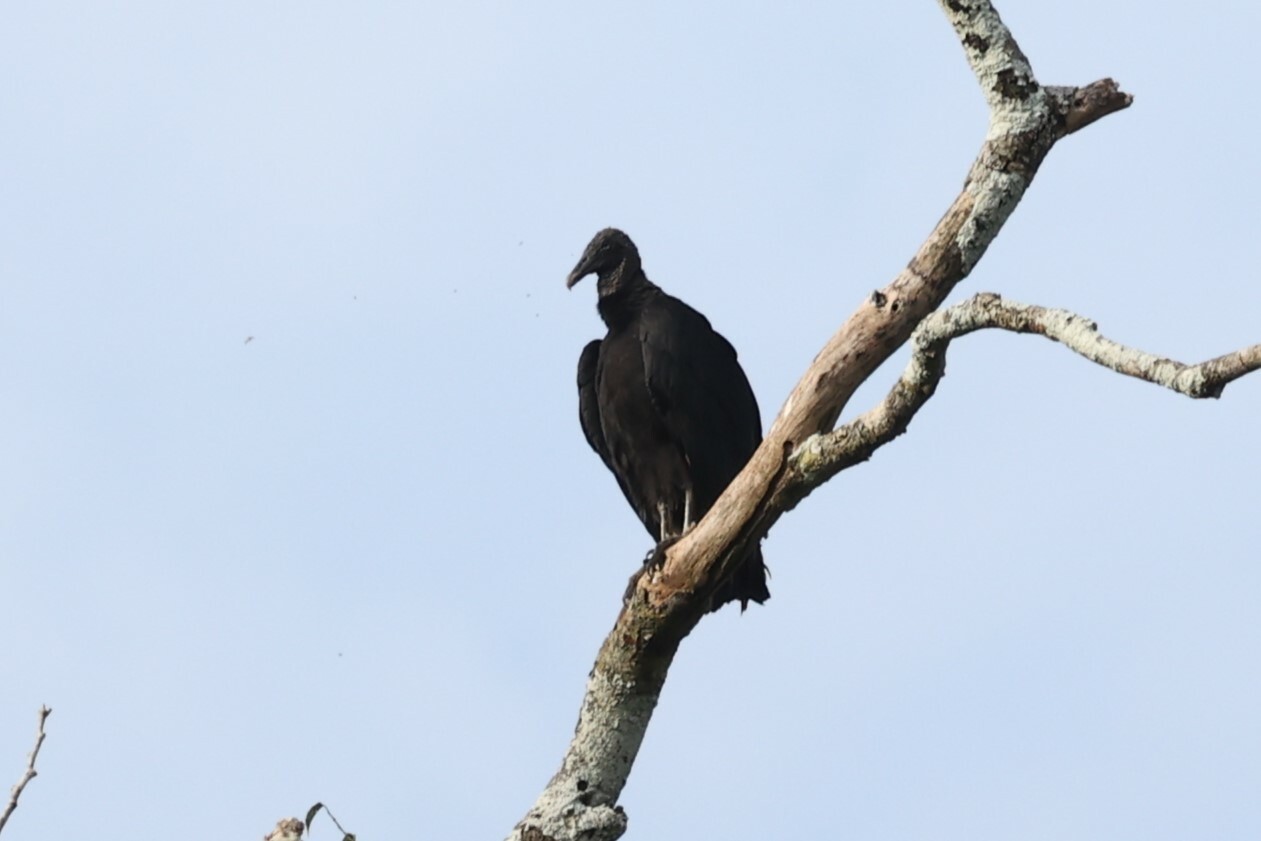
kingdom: Animalia
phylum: Chordata
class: Aves
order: Accipitriformes
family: Cathartidae
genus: Coragyps
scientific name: Coragyps atratus
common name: Black vulture
